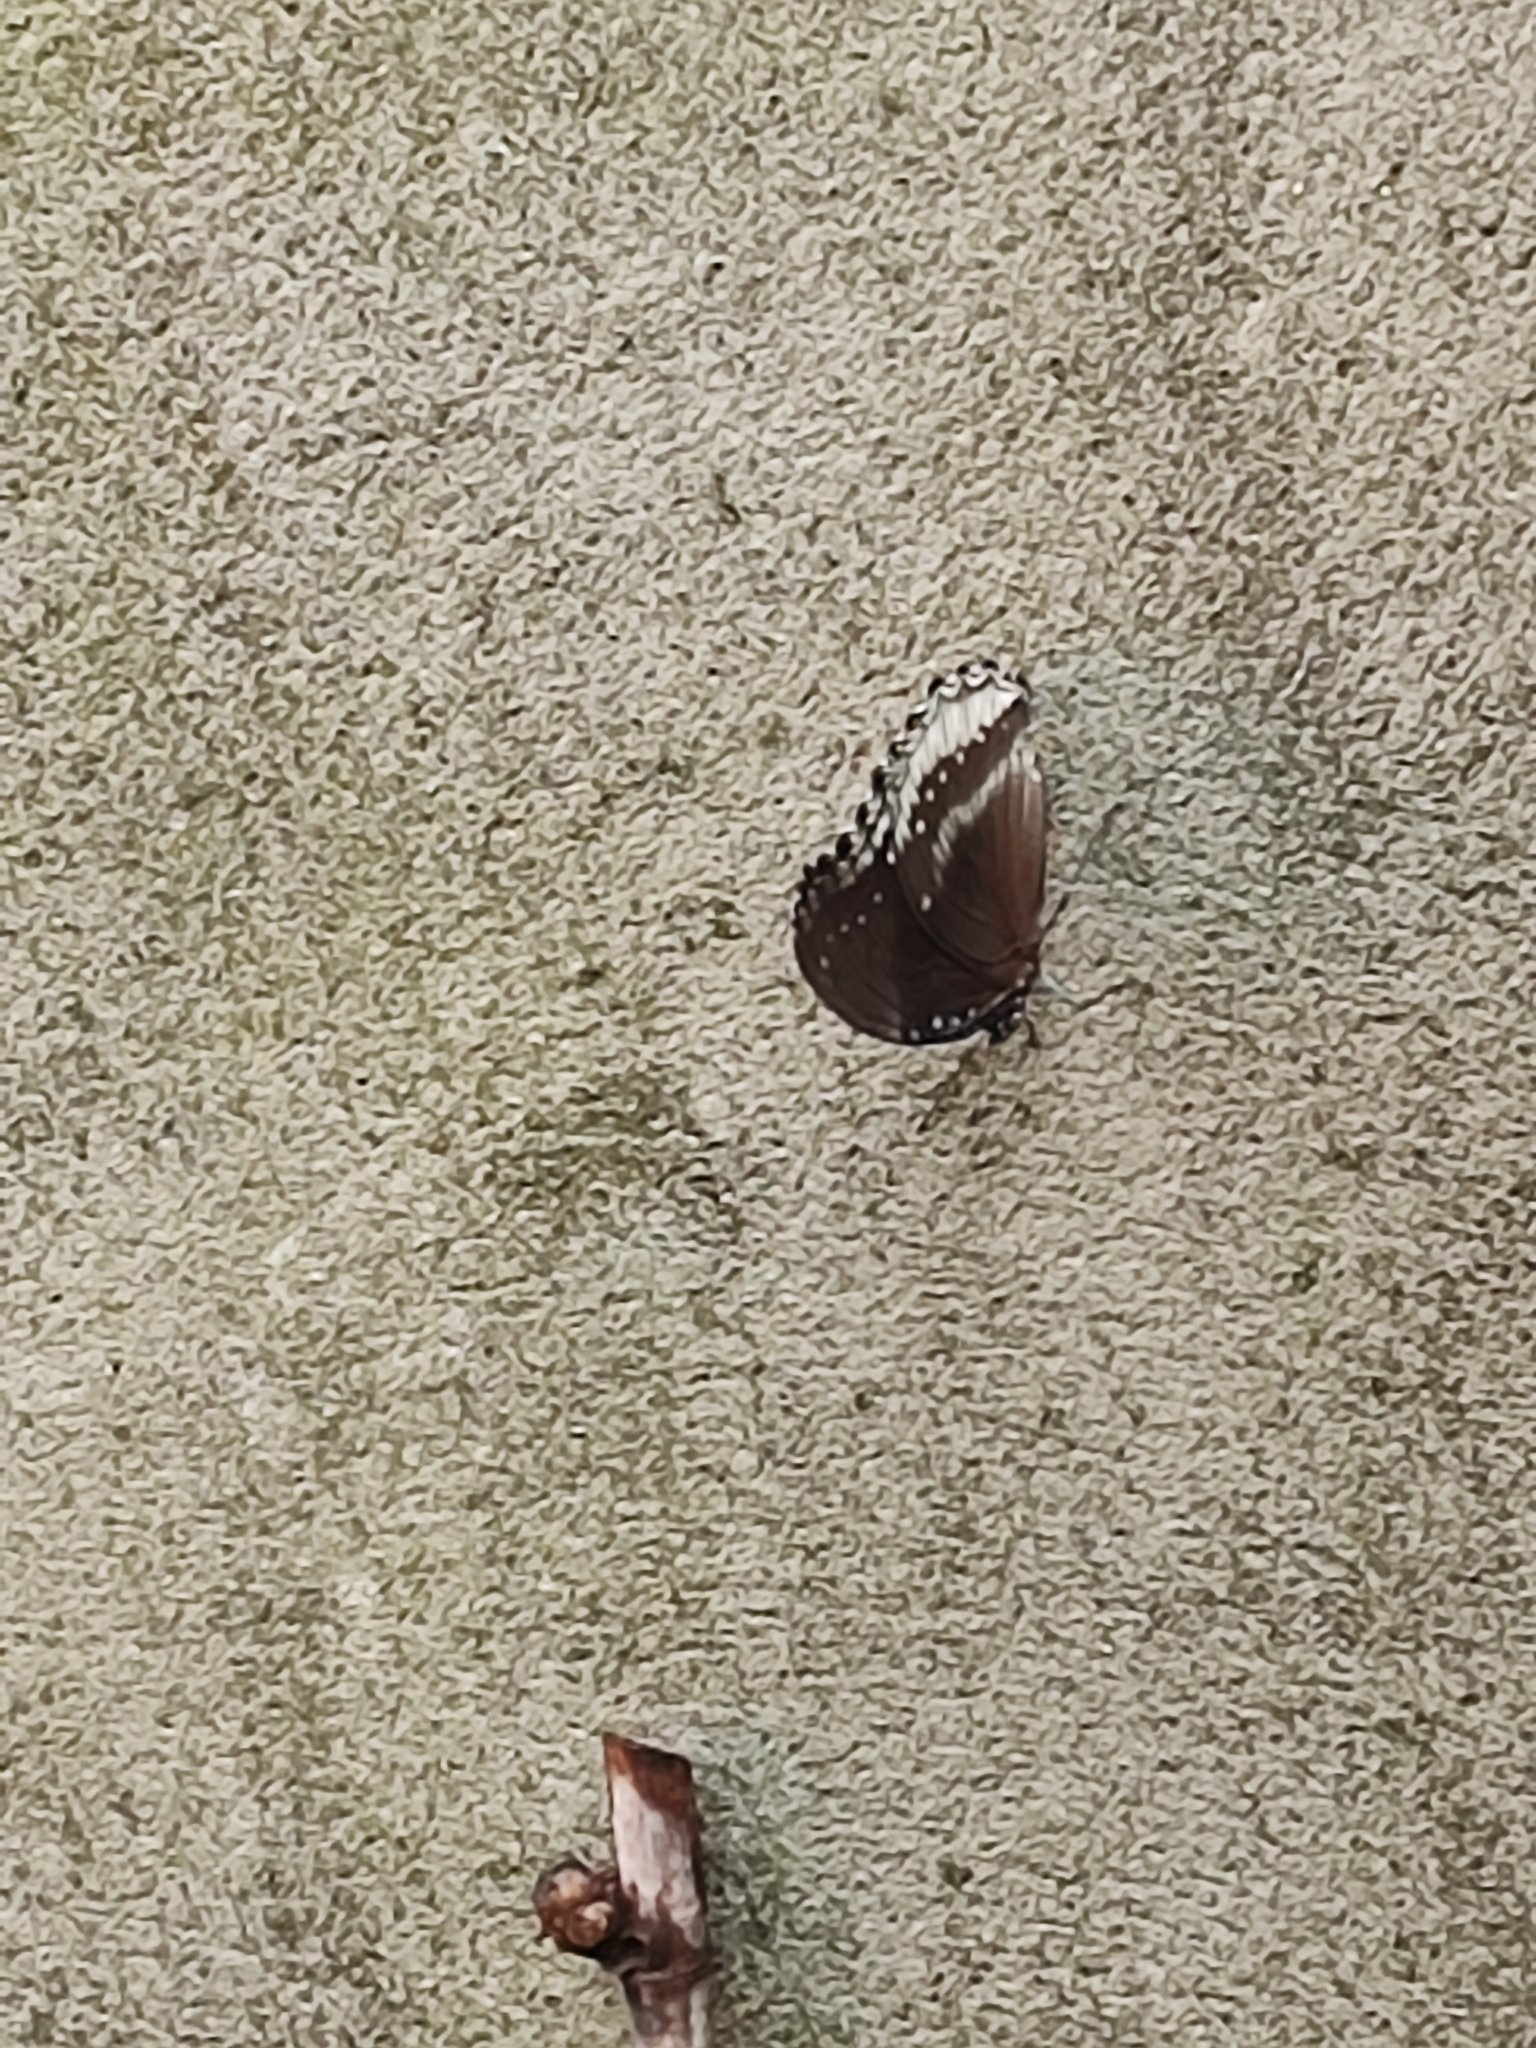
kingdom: Animalia
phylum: Arthropoda
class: Insecta
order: Lepidoptera
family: Nymphalidae
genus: Hypolimnas
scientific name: Hypolimnas bolina
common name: Great eggfly
